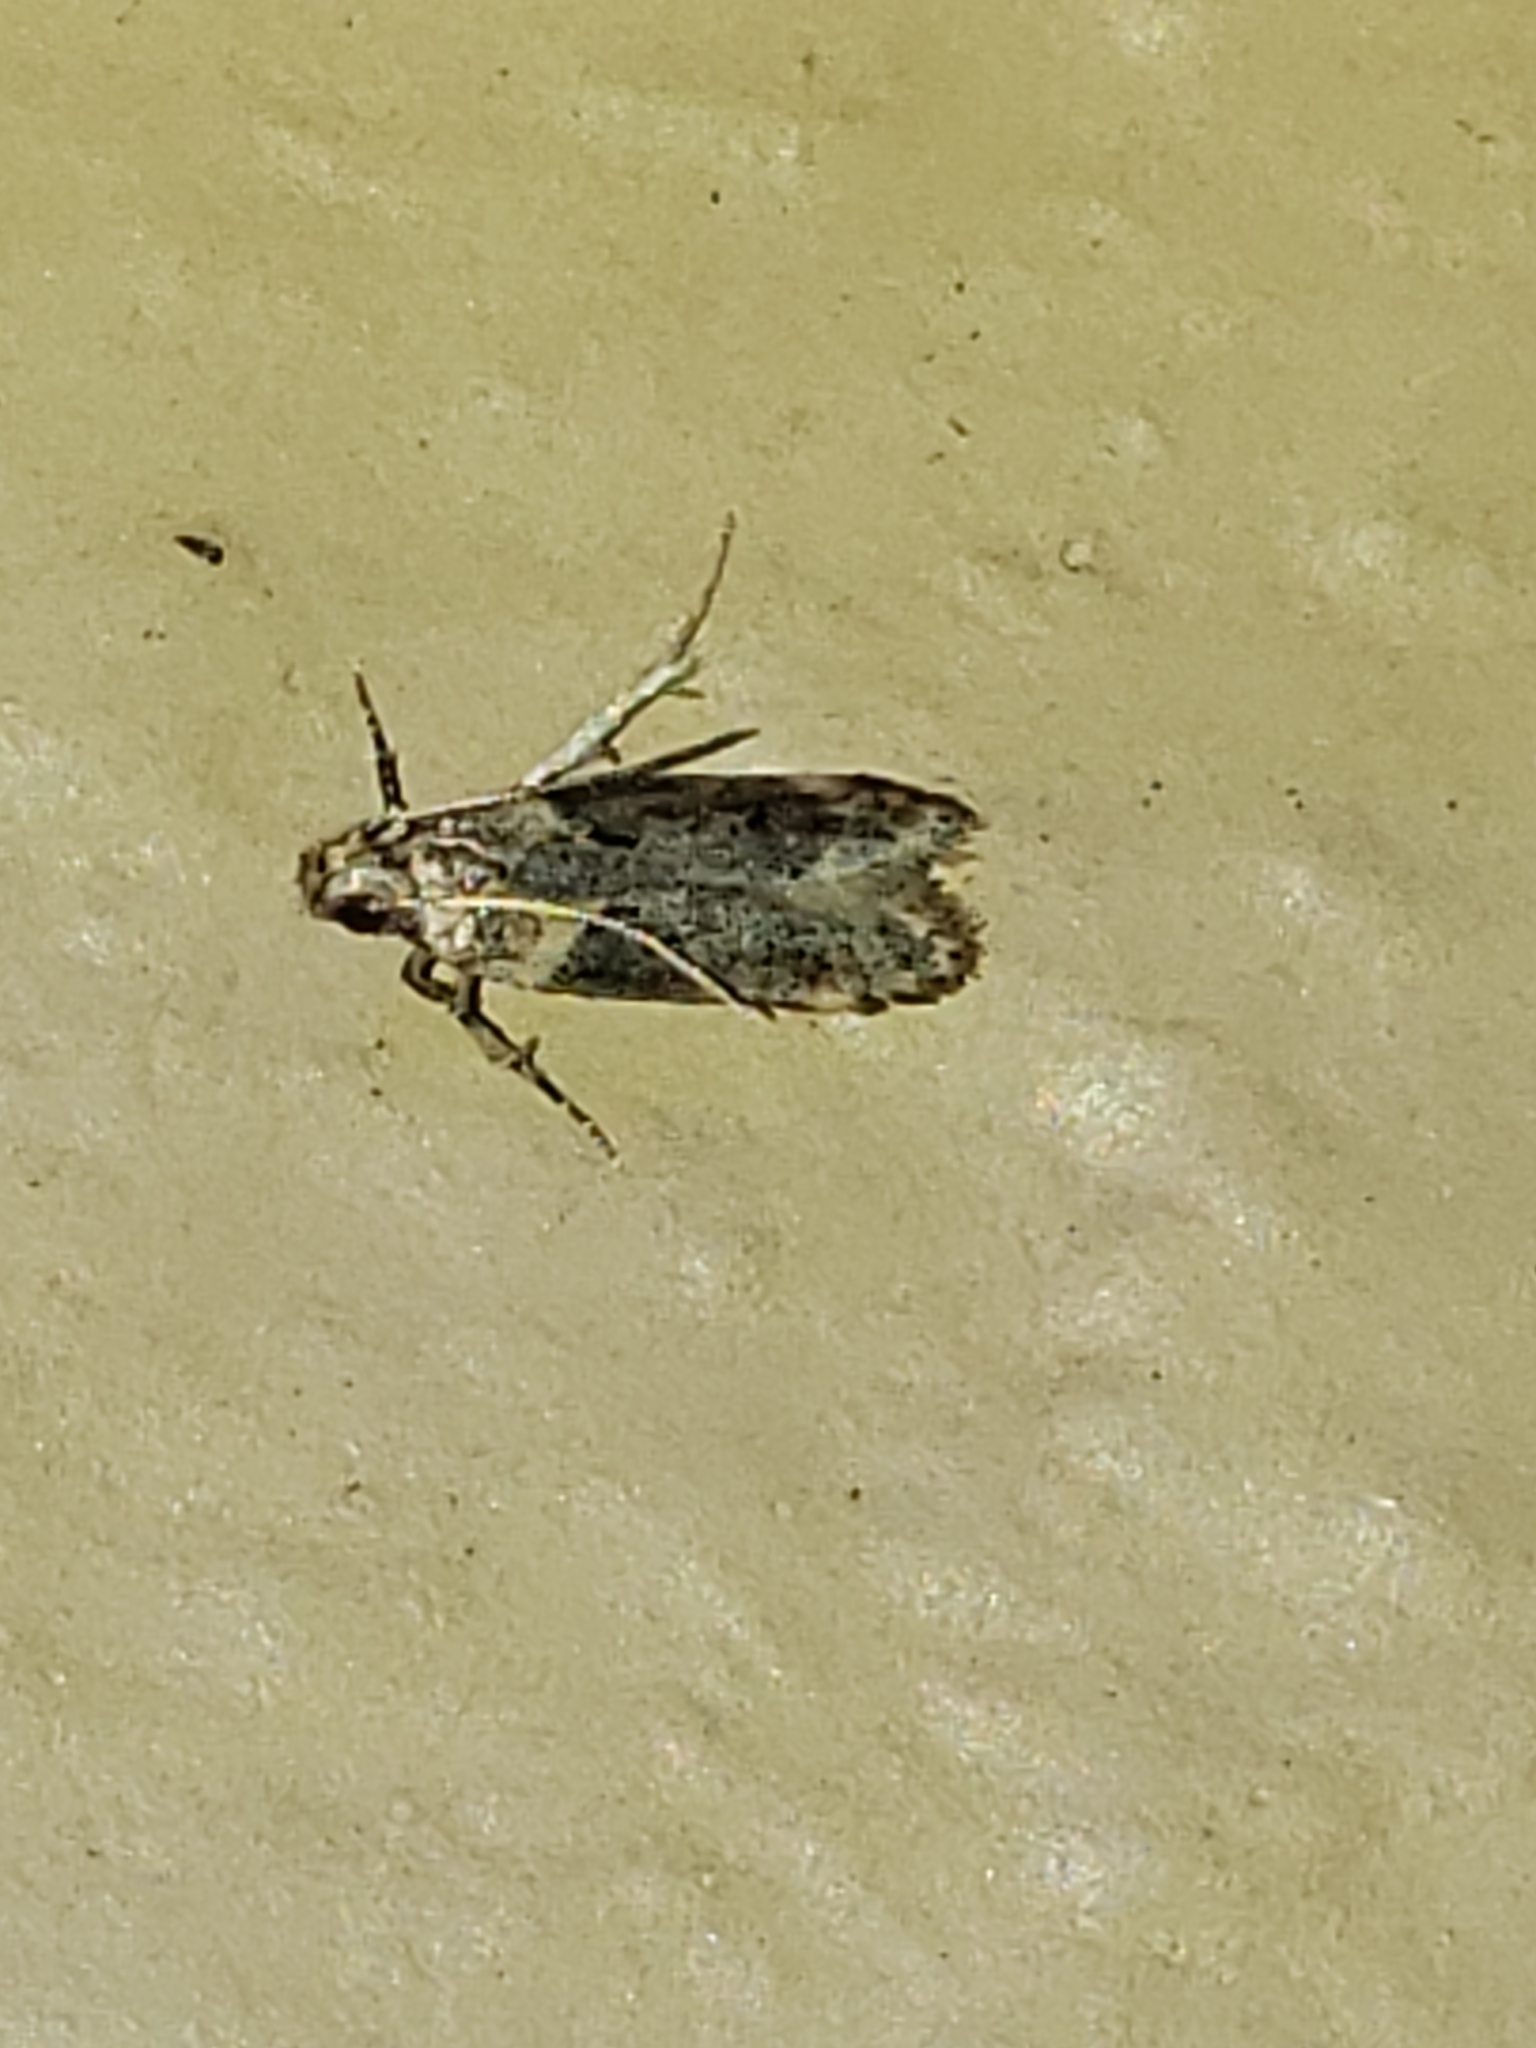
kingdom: Animalia
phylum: Arthropoda
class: Insecta
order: Lepidoptera
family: Gelechiidae
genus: Chionodes
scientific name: Chionodes mediofuscella
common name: Black-smudged chionodes moth
